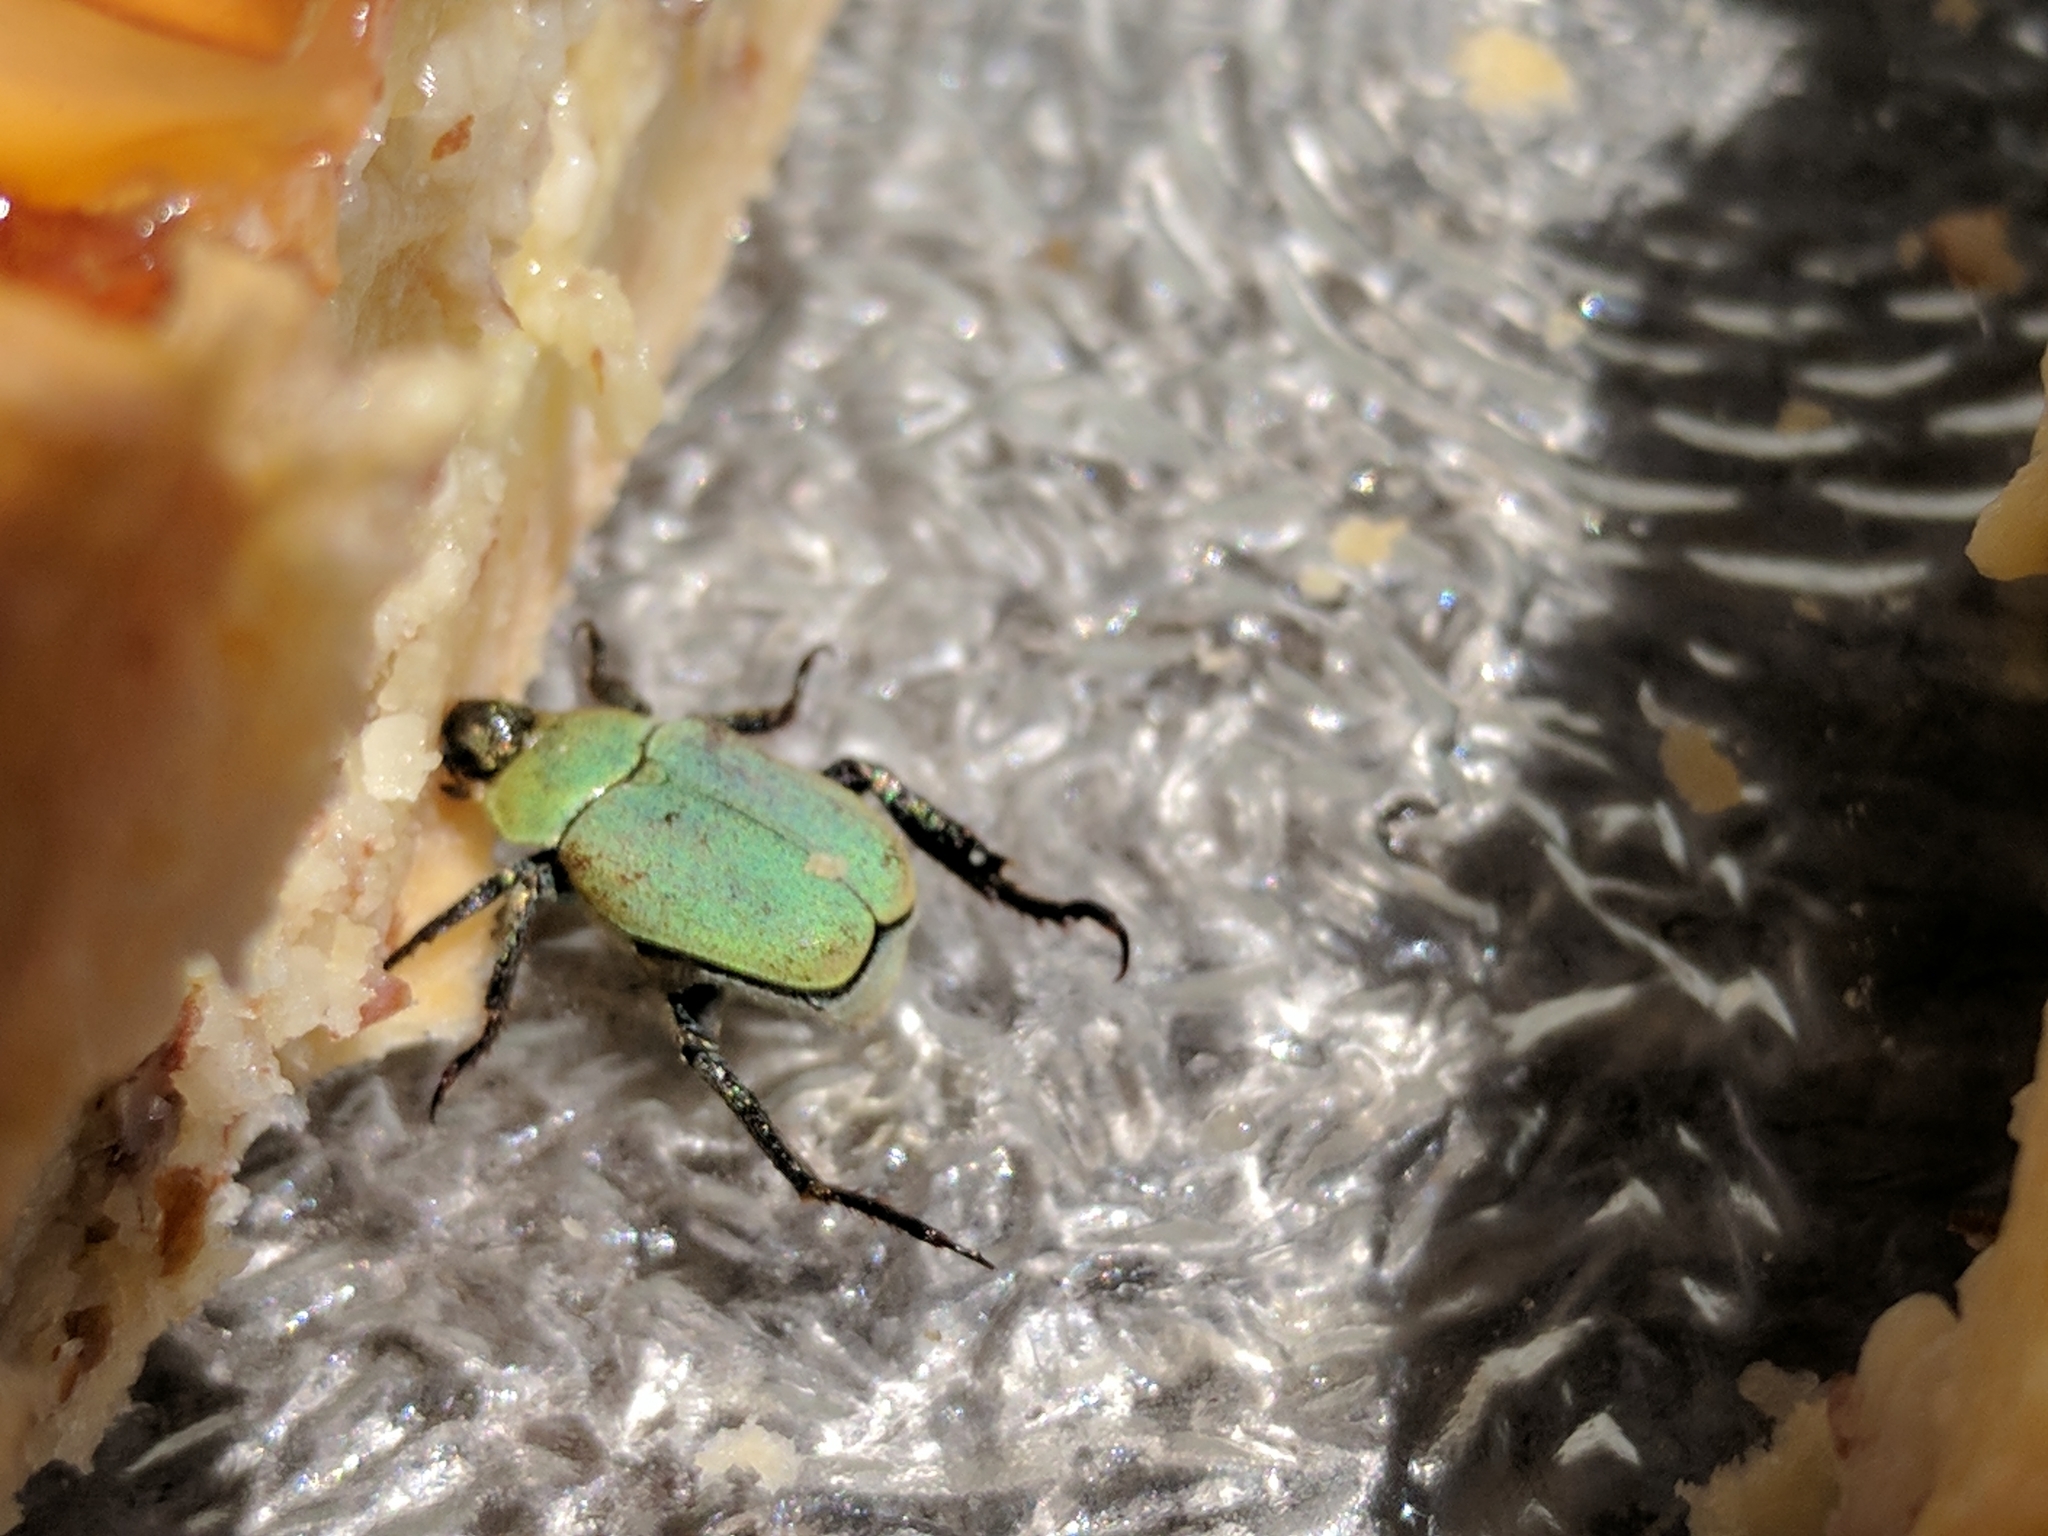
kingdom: Animalia
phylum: Arthropoda
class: Insecta
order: Coleoptera
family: Scarabaeidae
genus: Hoplia
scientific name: Hoplia argentea
